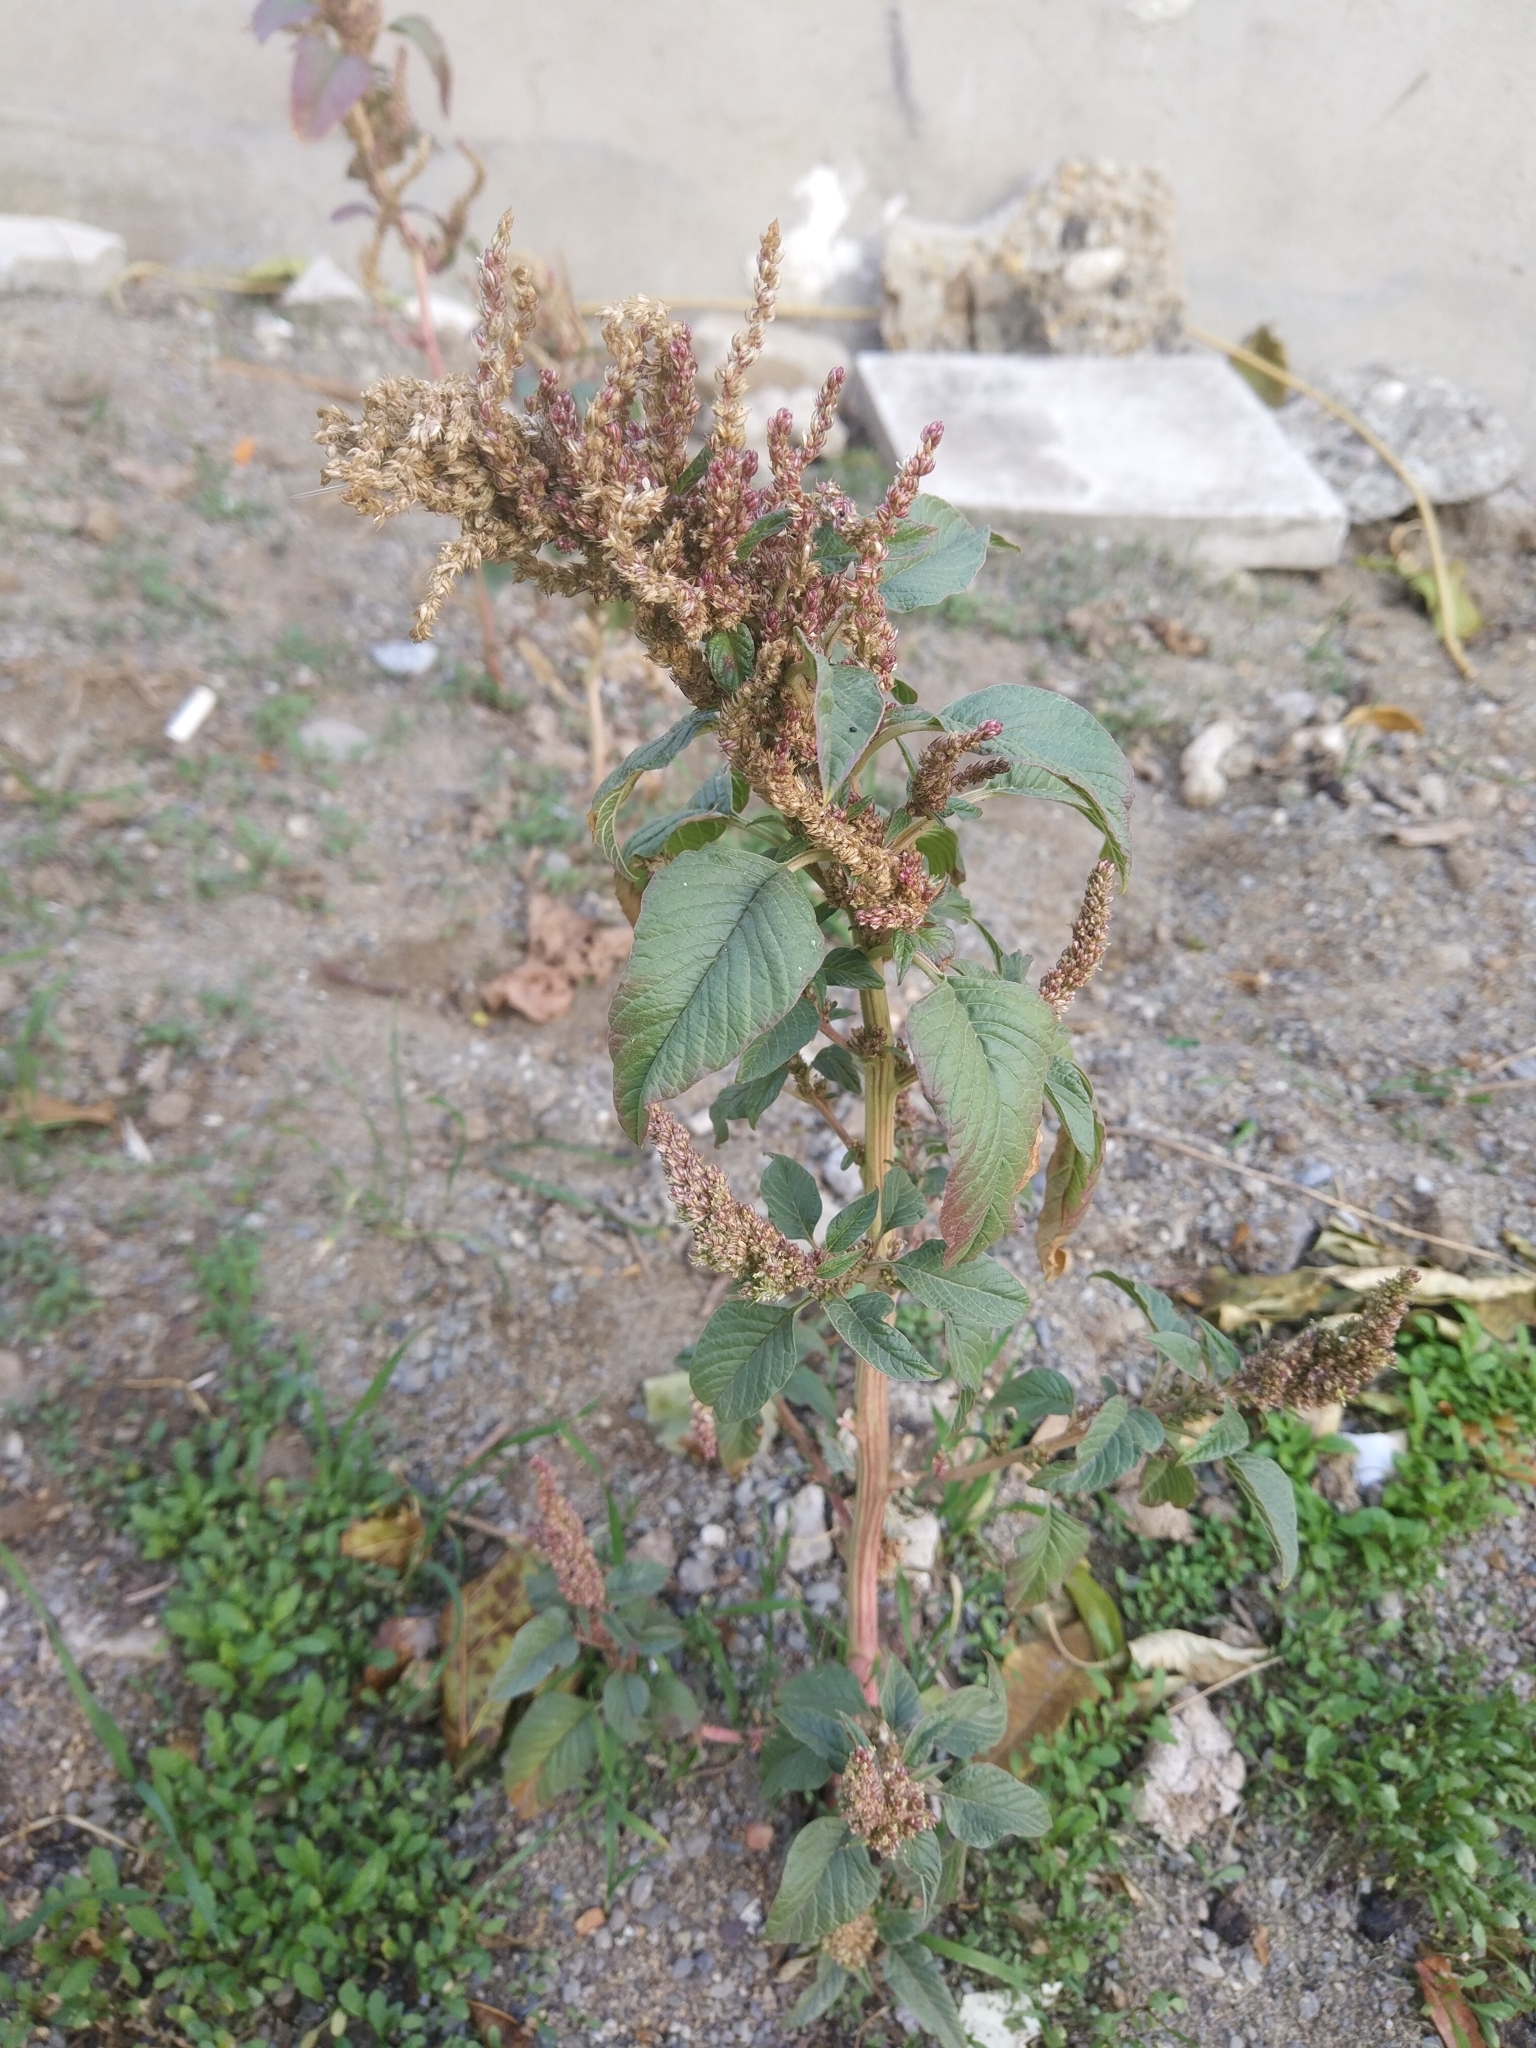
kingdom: Plantae
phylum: Tracheophyta
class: Magnoliopsida
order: Caryophyllales
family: Amaranthaceae
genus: Amaranthus
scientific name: Amaranthus retroflexus
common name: Redroot amaranth
